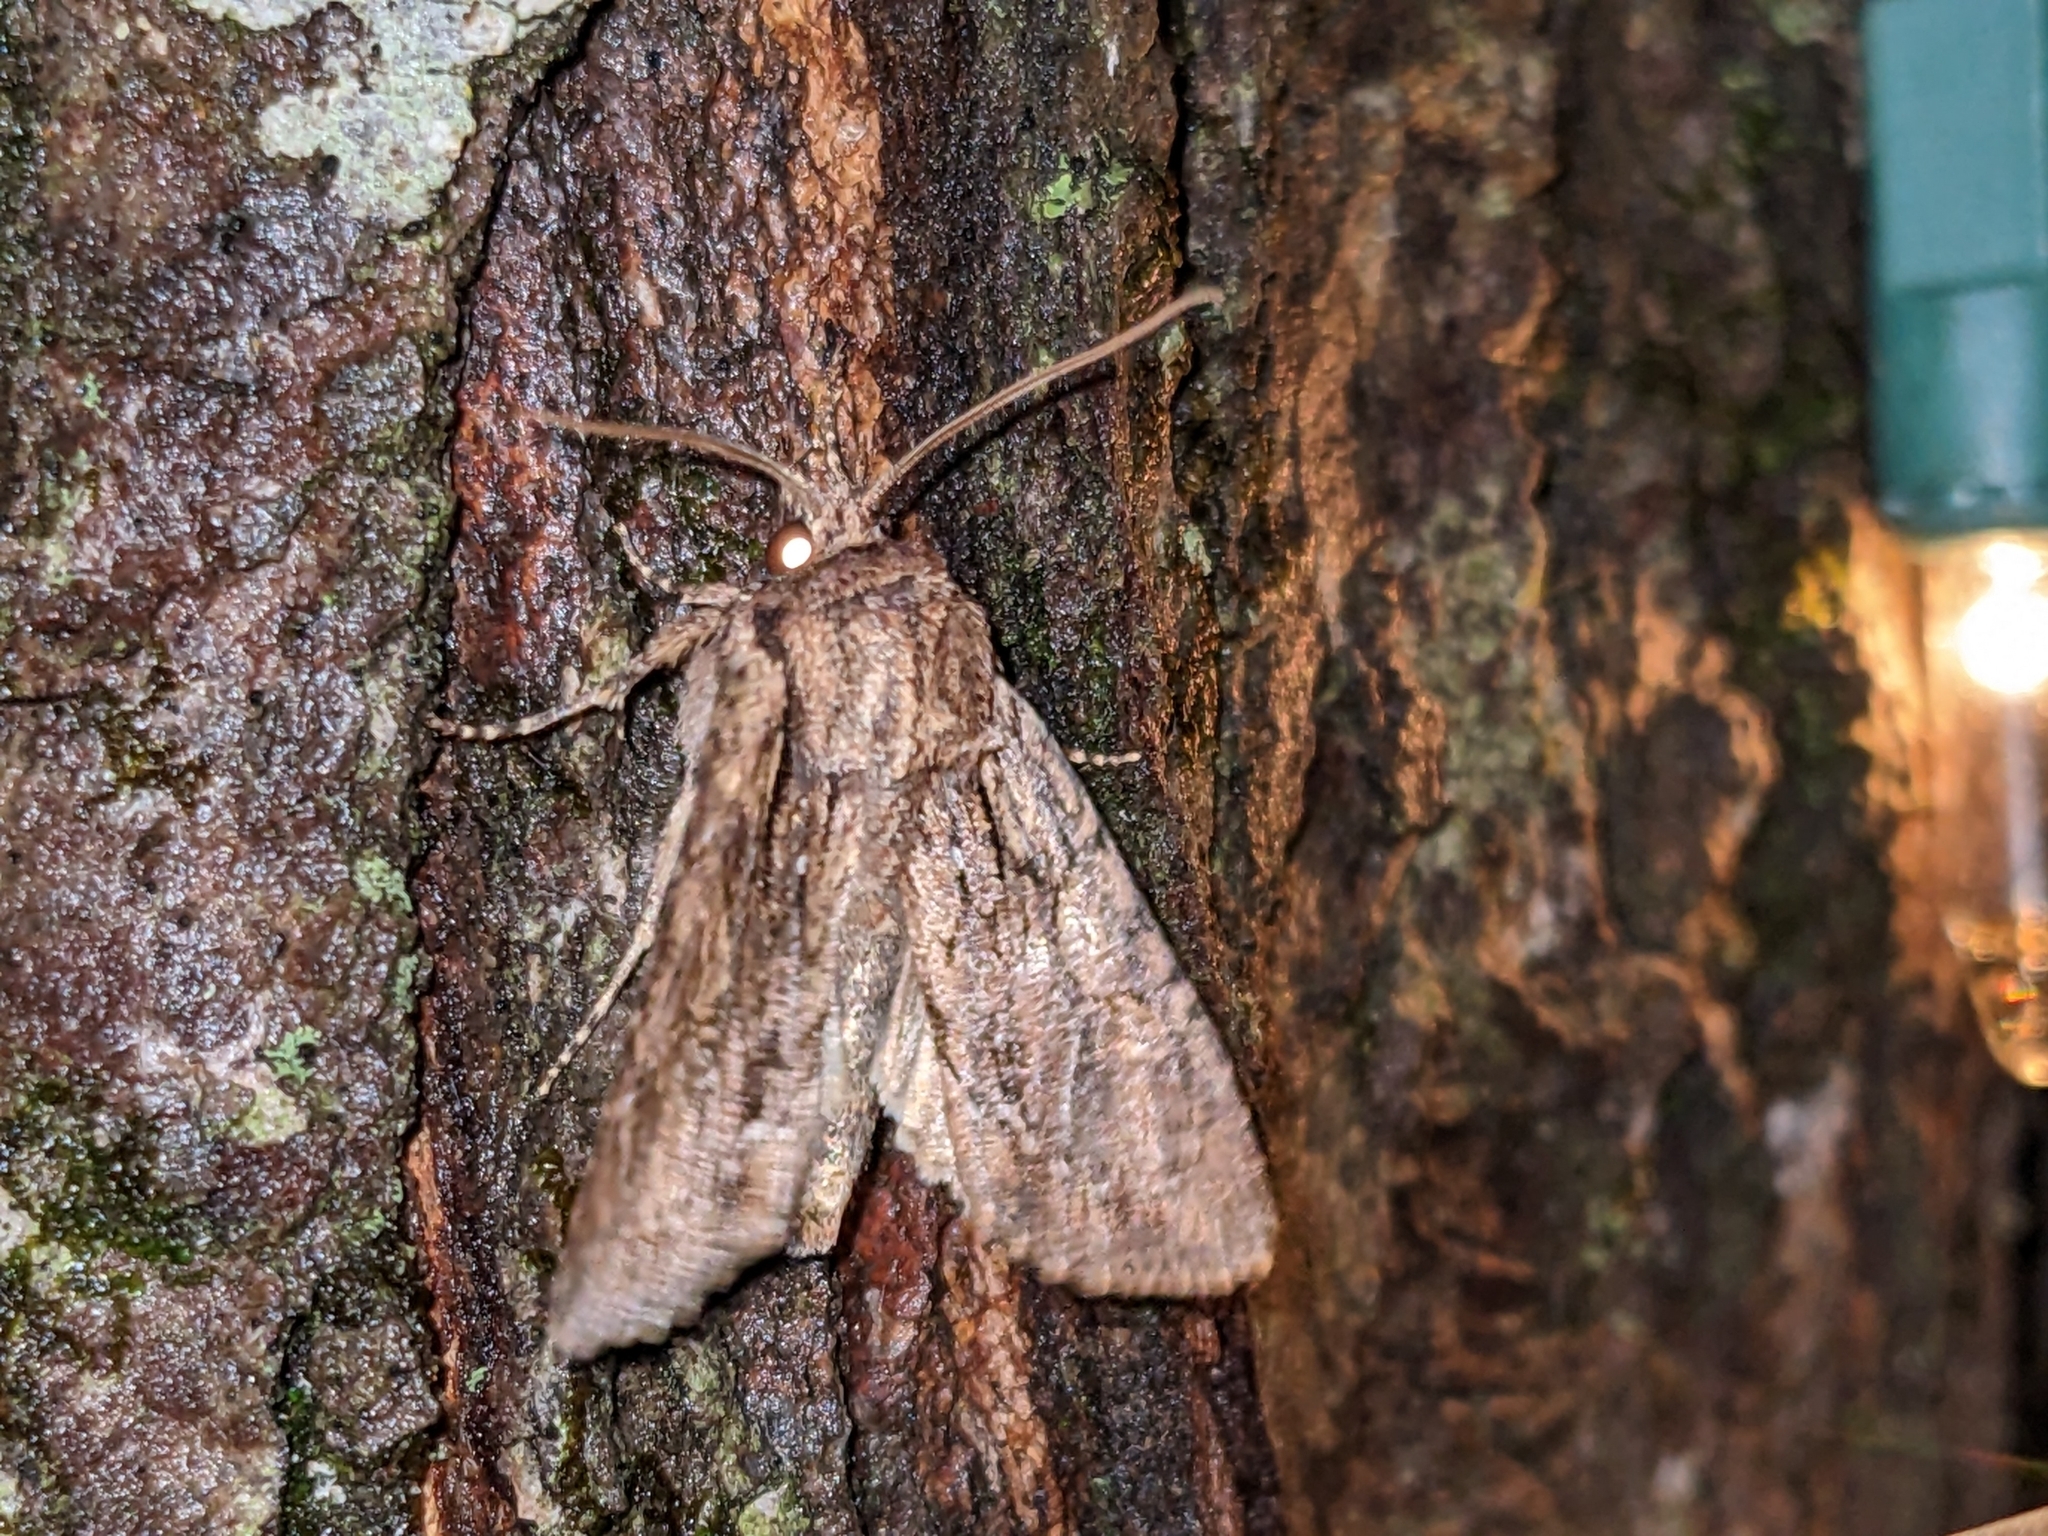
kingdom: Animalia
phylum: Arthropoda
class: Insecta
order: Lepidoptera
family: Noctuidae
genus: Achatia
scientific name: Achatia confusa
